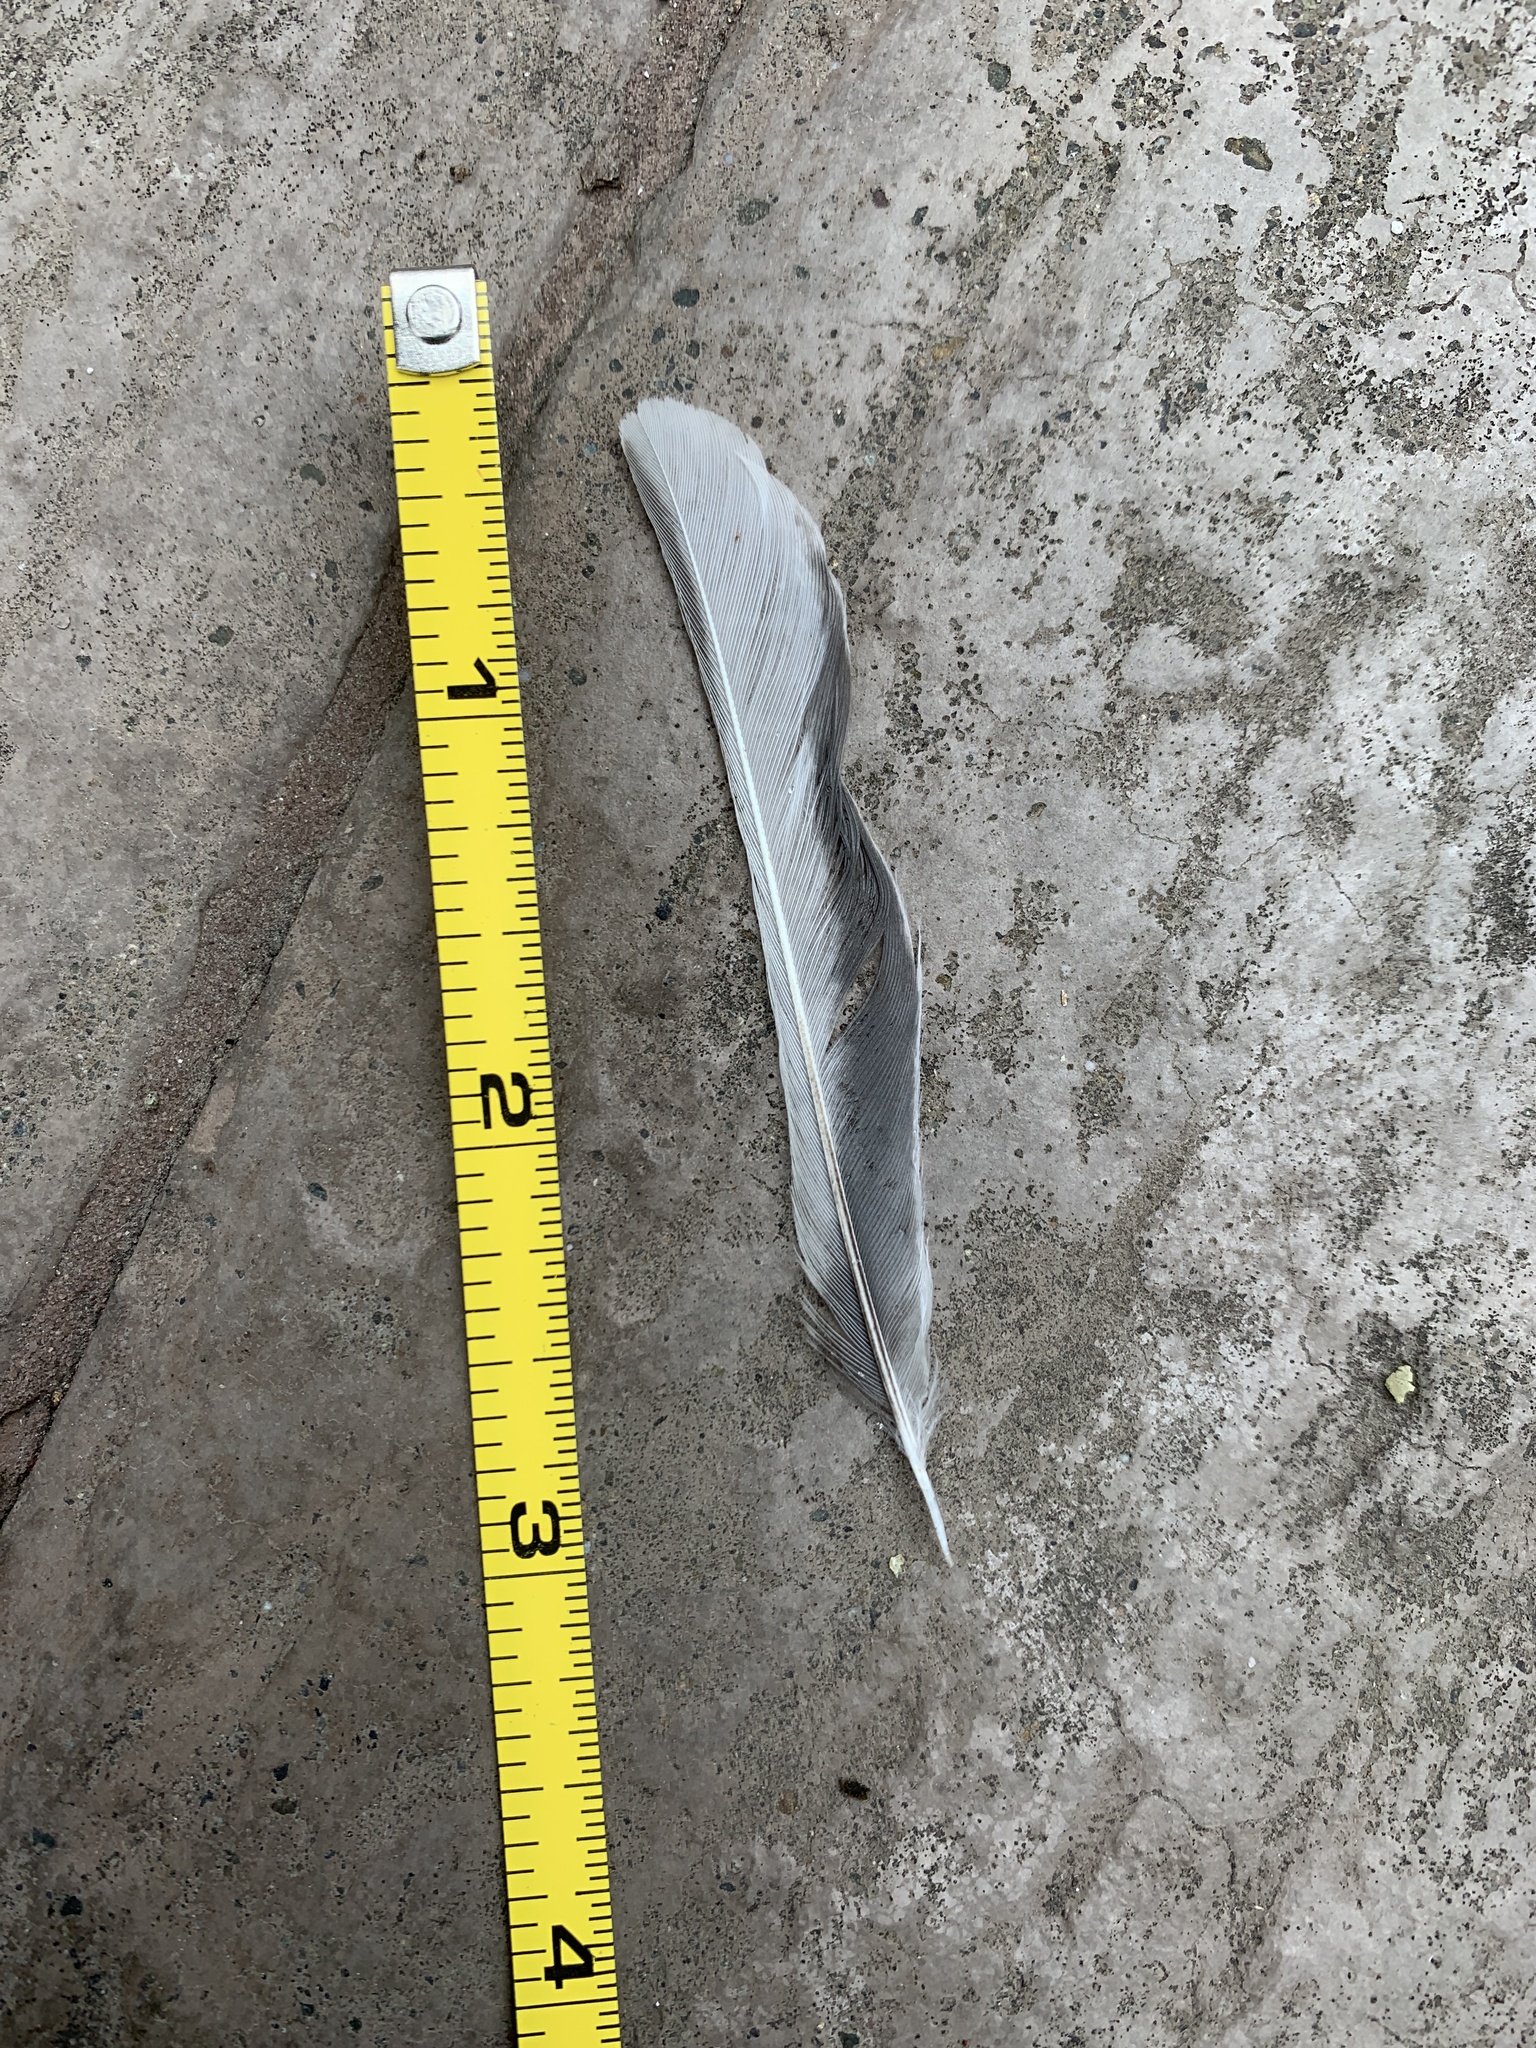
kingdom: Animalia
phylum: Chordata
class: Aves
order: Passeriformes
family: Passerellidae
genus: Junco
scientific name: Junco hyemalis
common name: Dark-eyed junco
